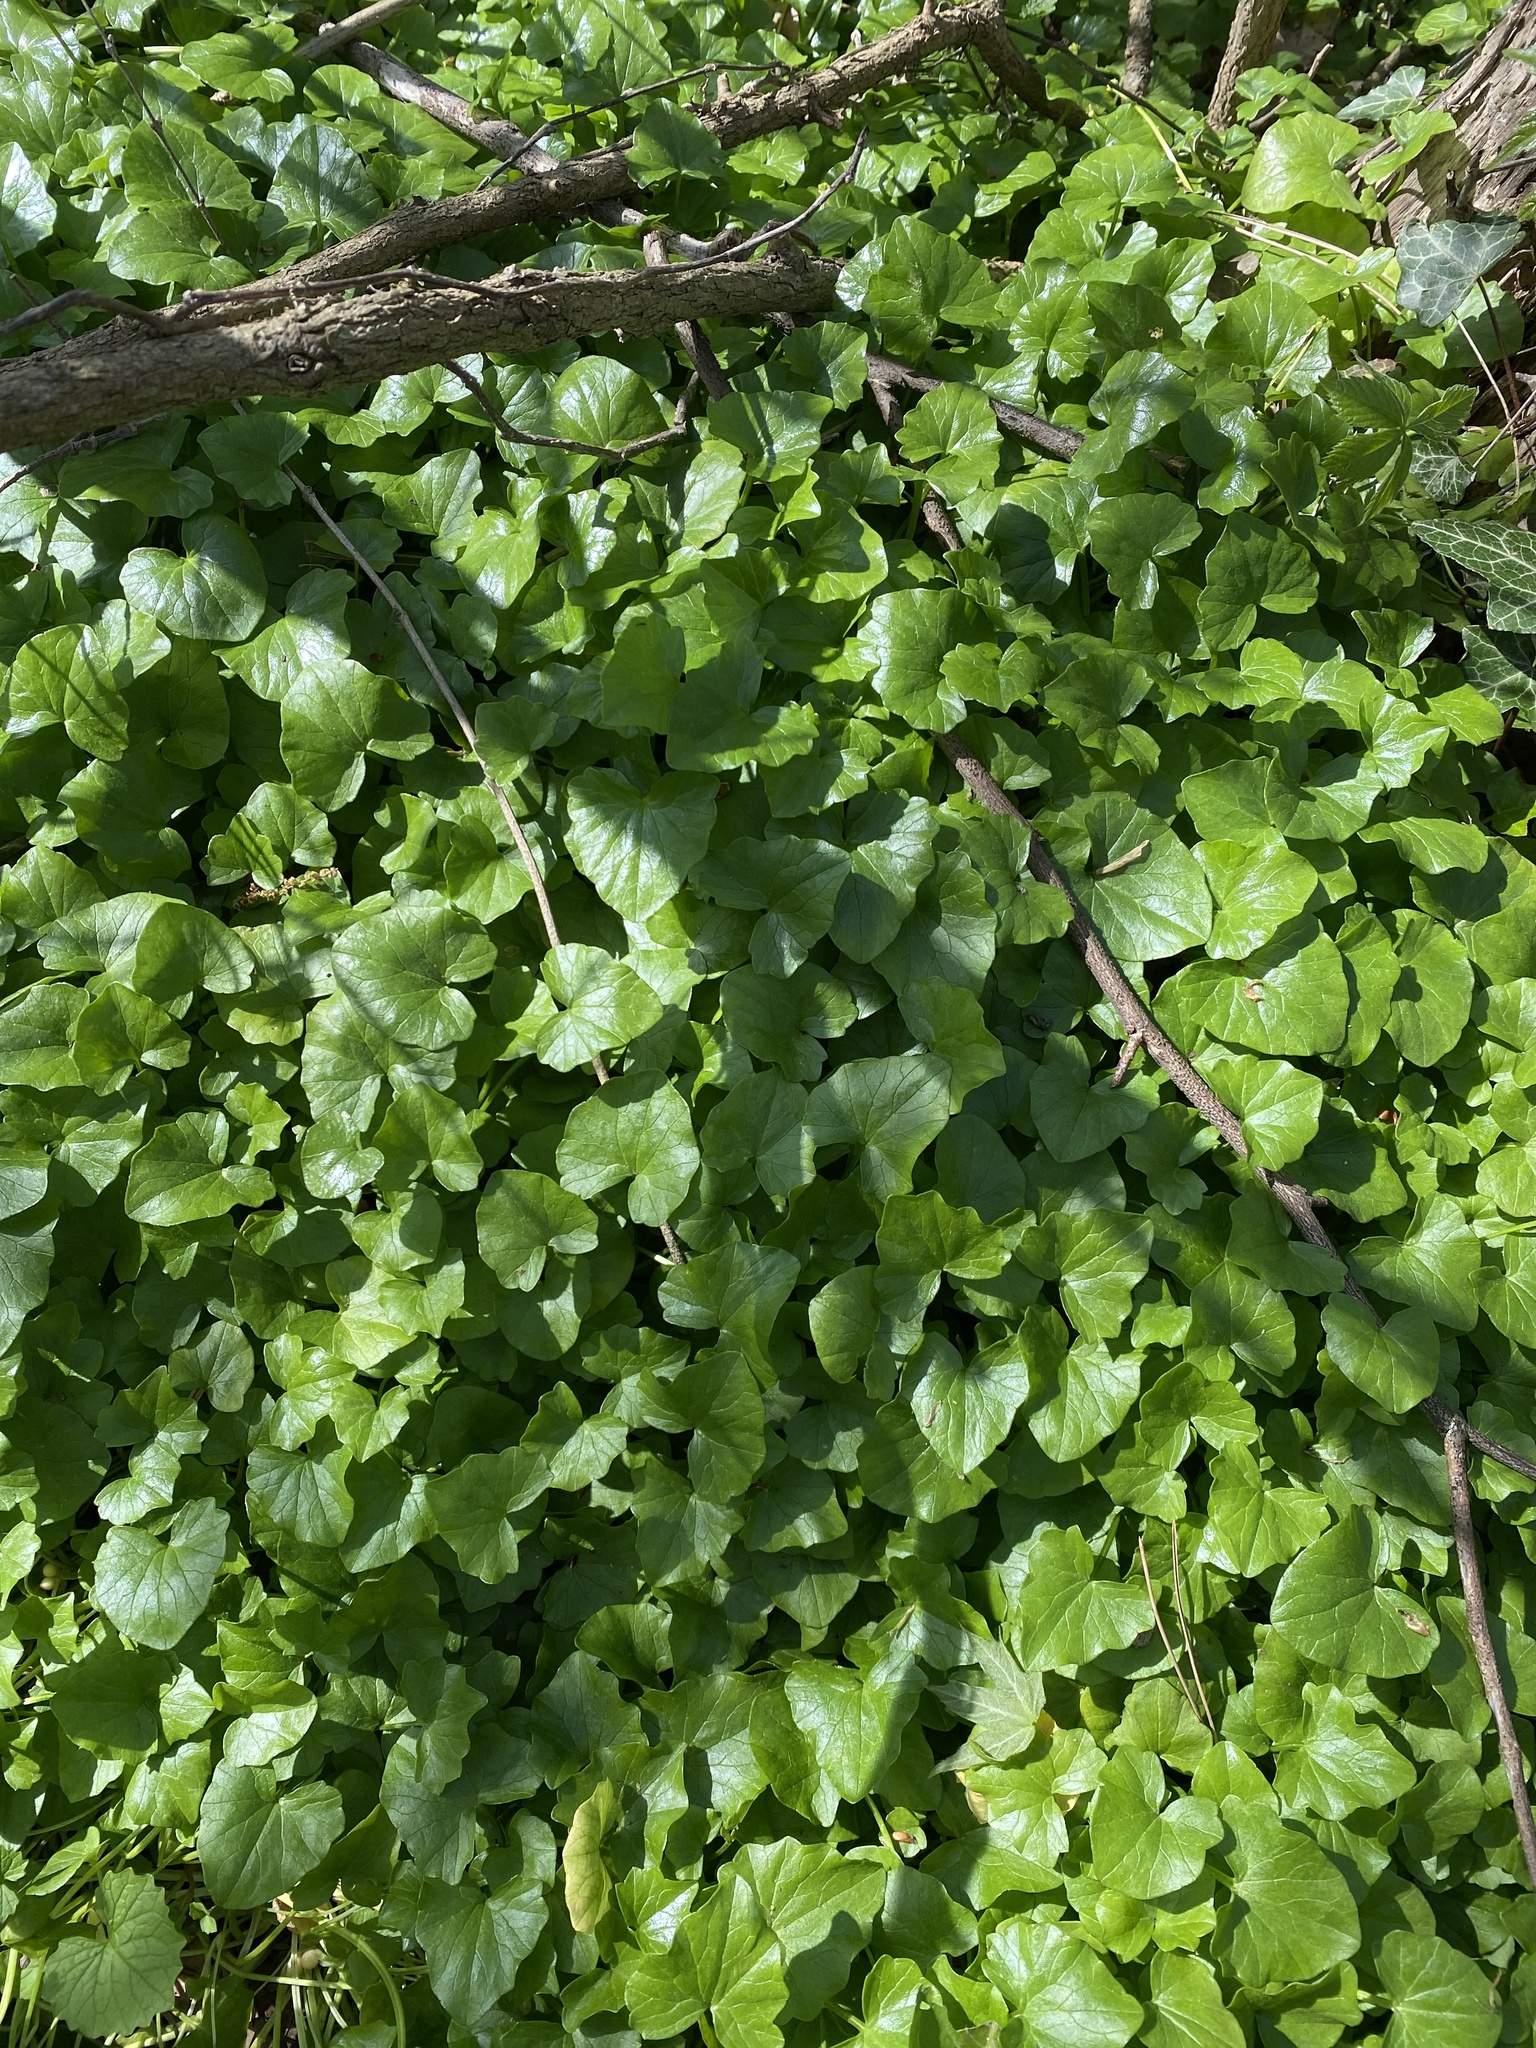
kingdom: Plantae
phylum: Tracheophyta
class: Magnoliopsida
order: Ranunculales
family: Ranunculaceae
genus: Ficaria
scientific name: Ficaria verna
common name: Lesser celandine
